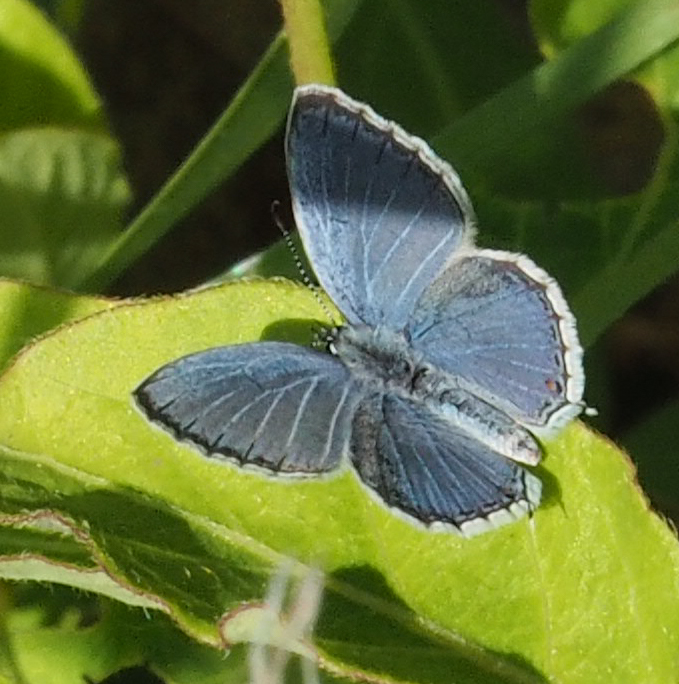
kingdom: Animalia
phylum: Arthropoda
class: Insecta
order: Lepidoptera
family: Lycaenidae
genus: Elkalyce
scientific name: Elkalyce comyntas
